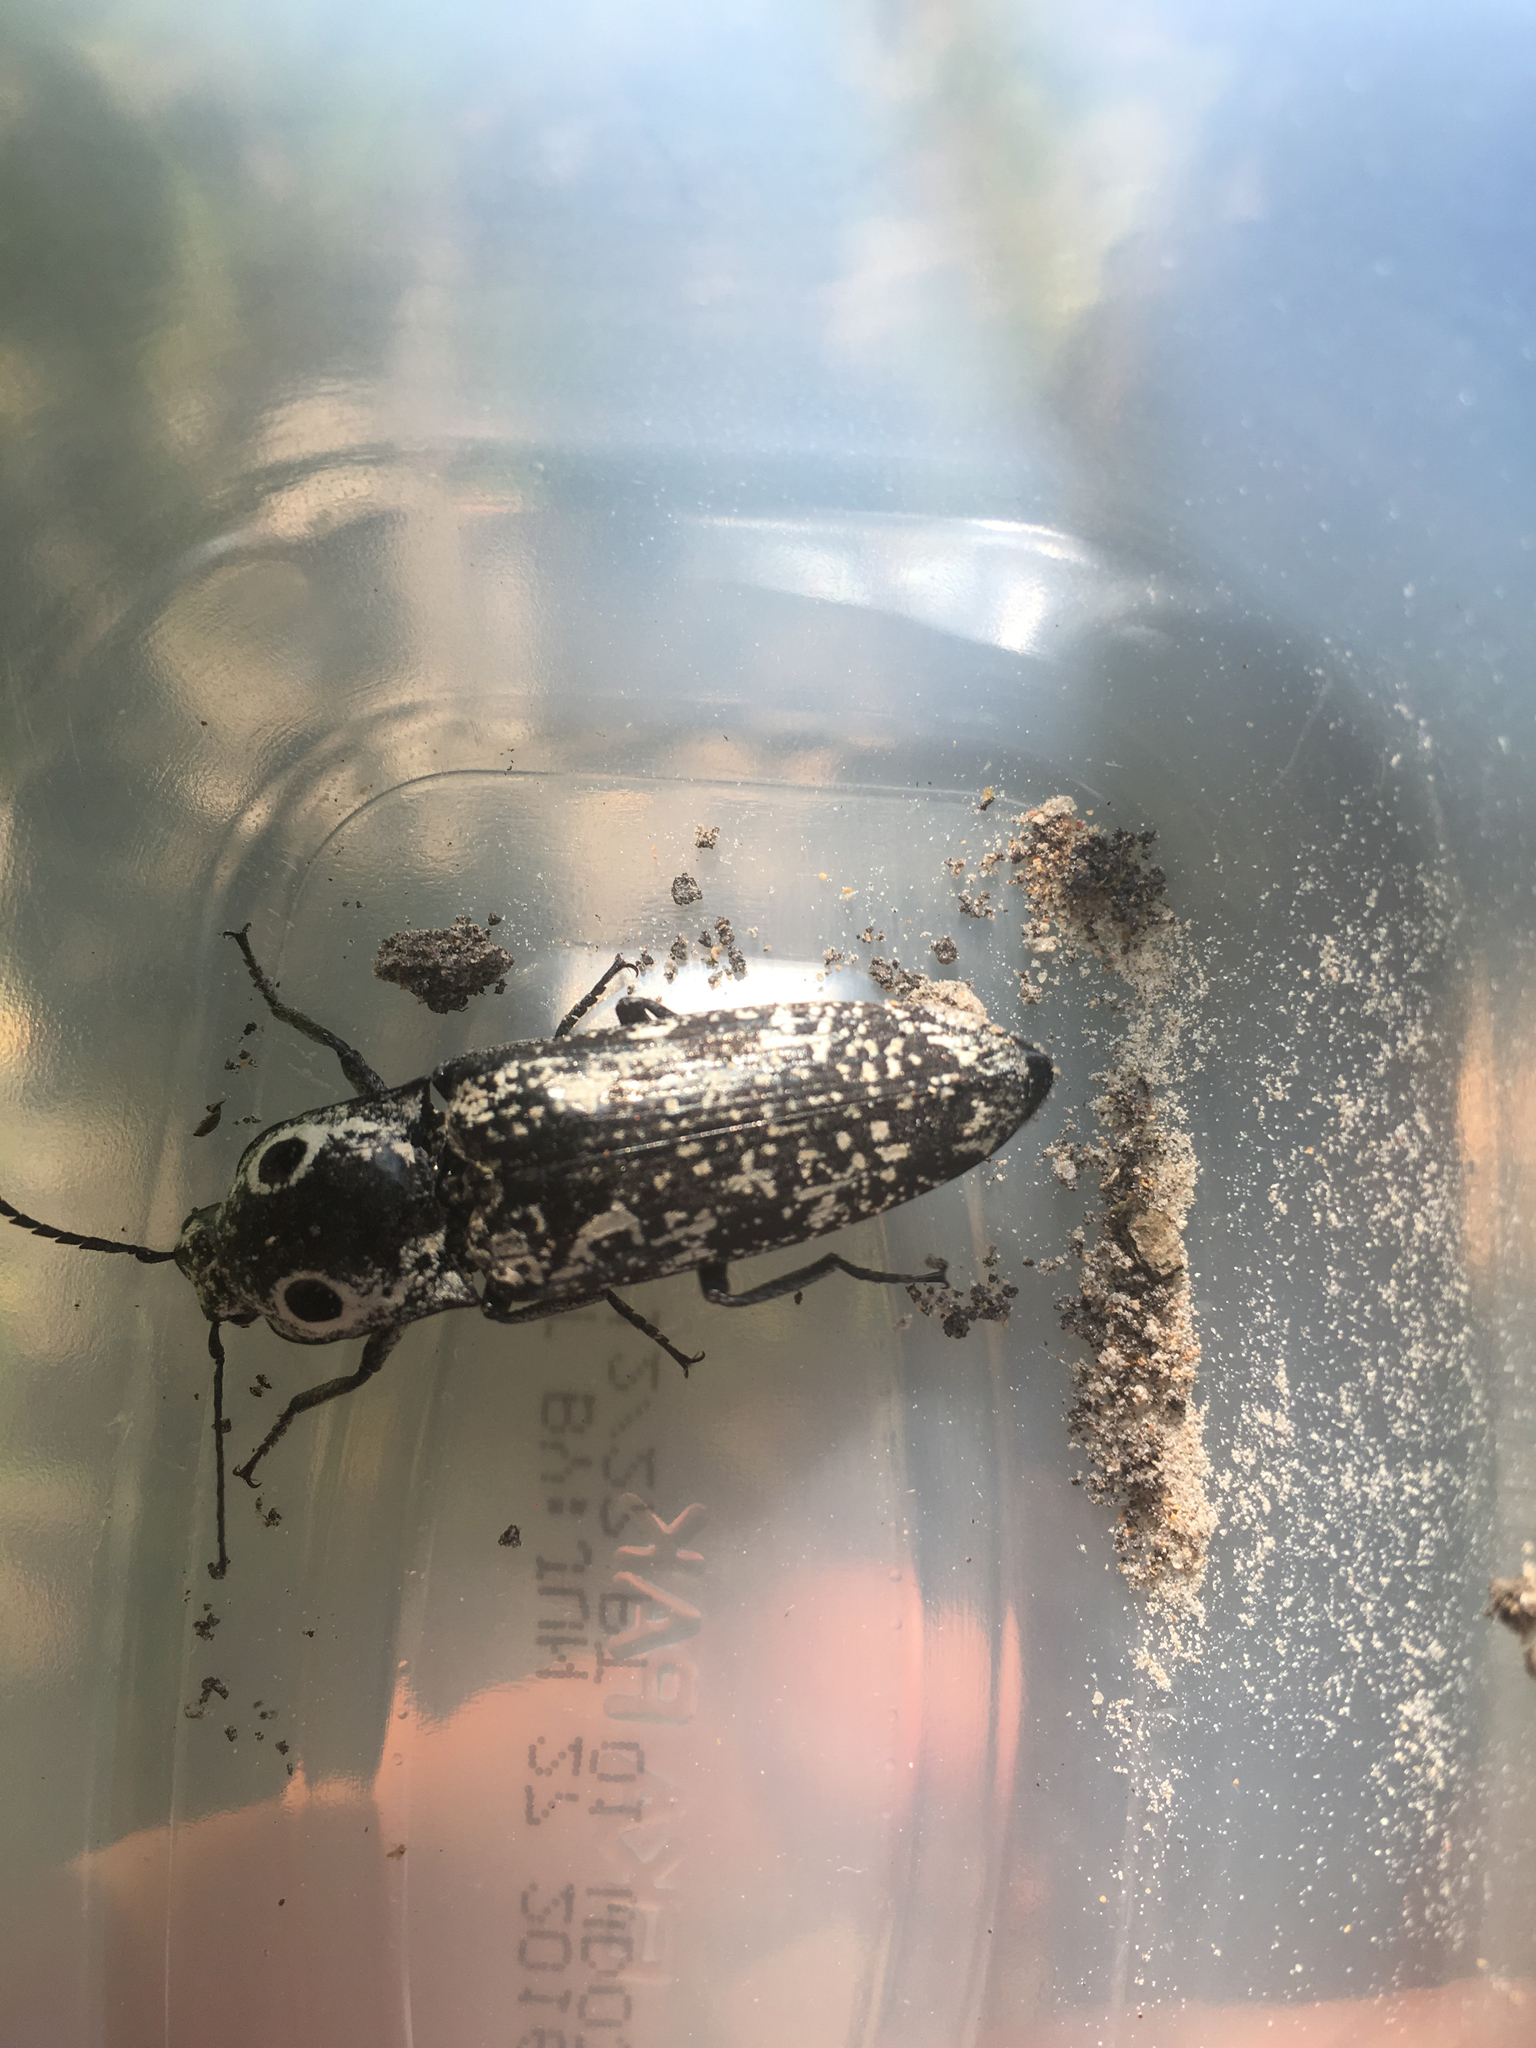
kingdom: Animalia
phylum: Arthropoda
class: Insecta
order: Coleoptera
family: Elateridae
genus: Alaus
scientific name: Alaus
